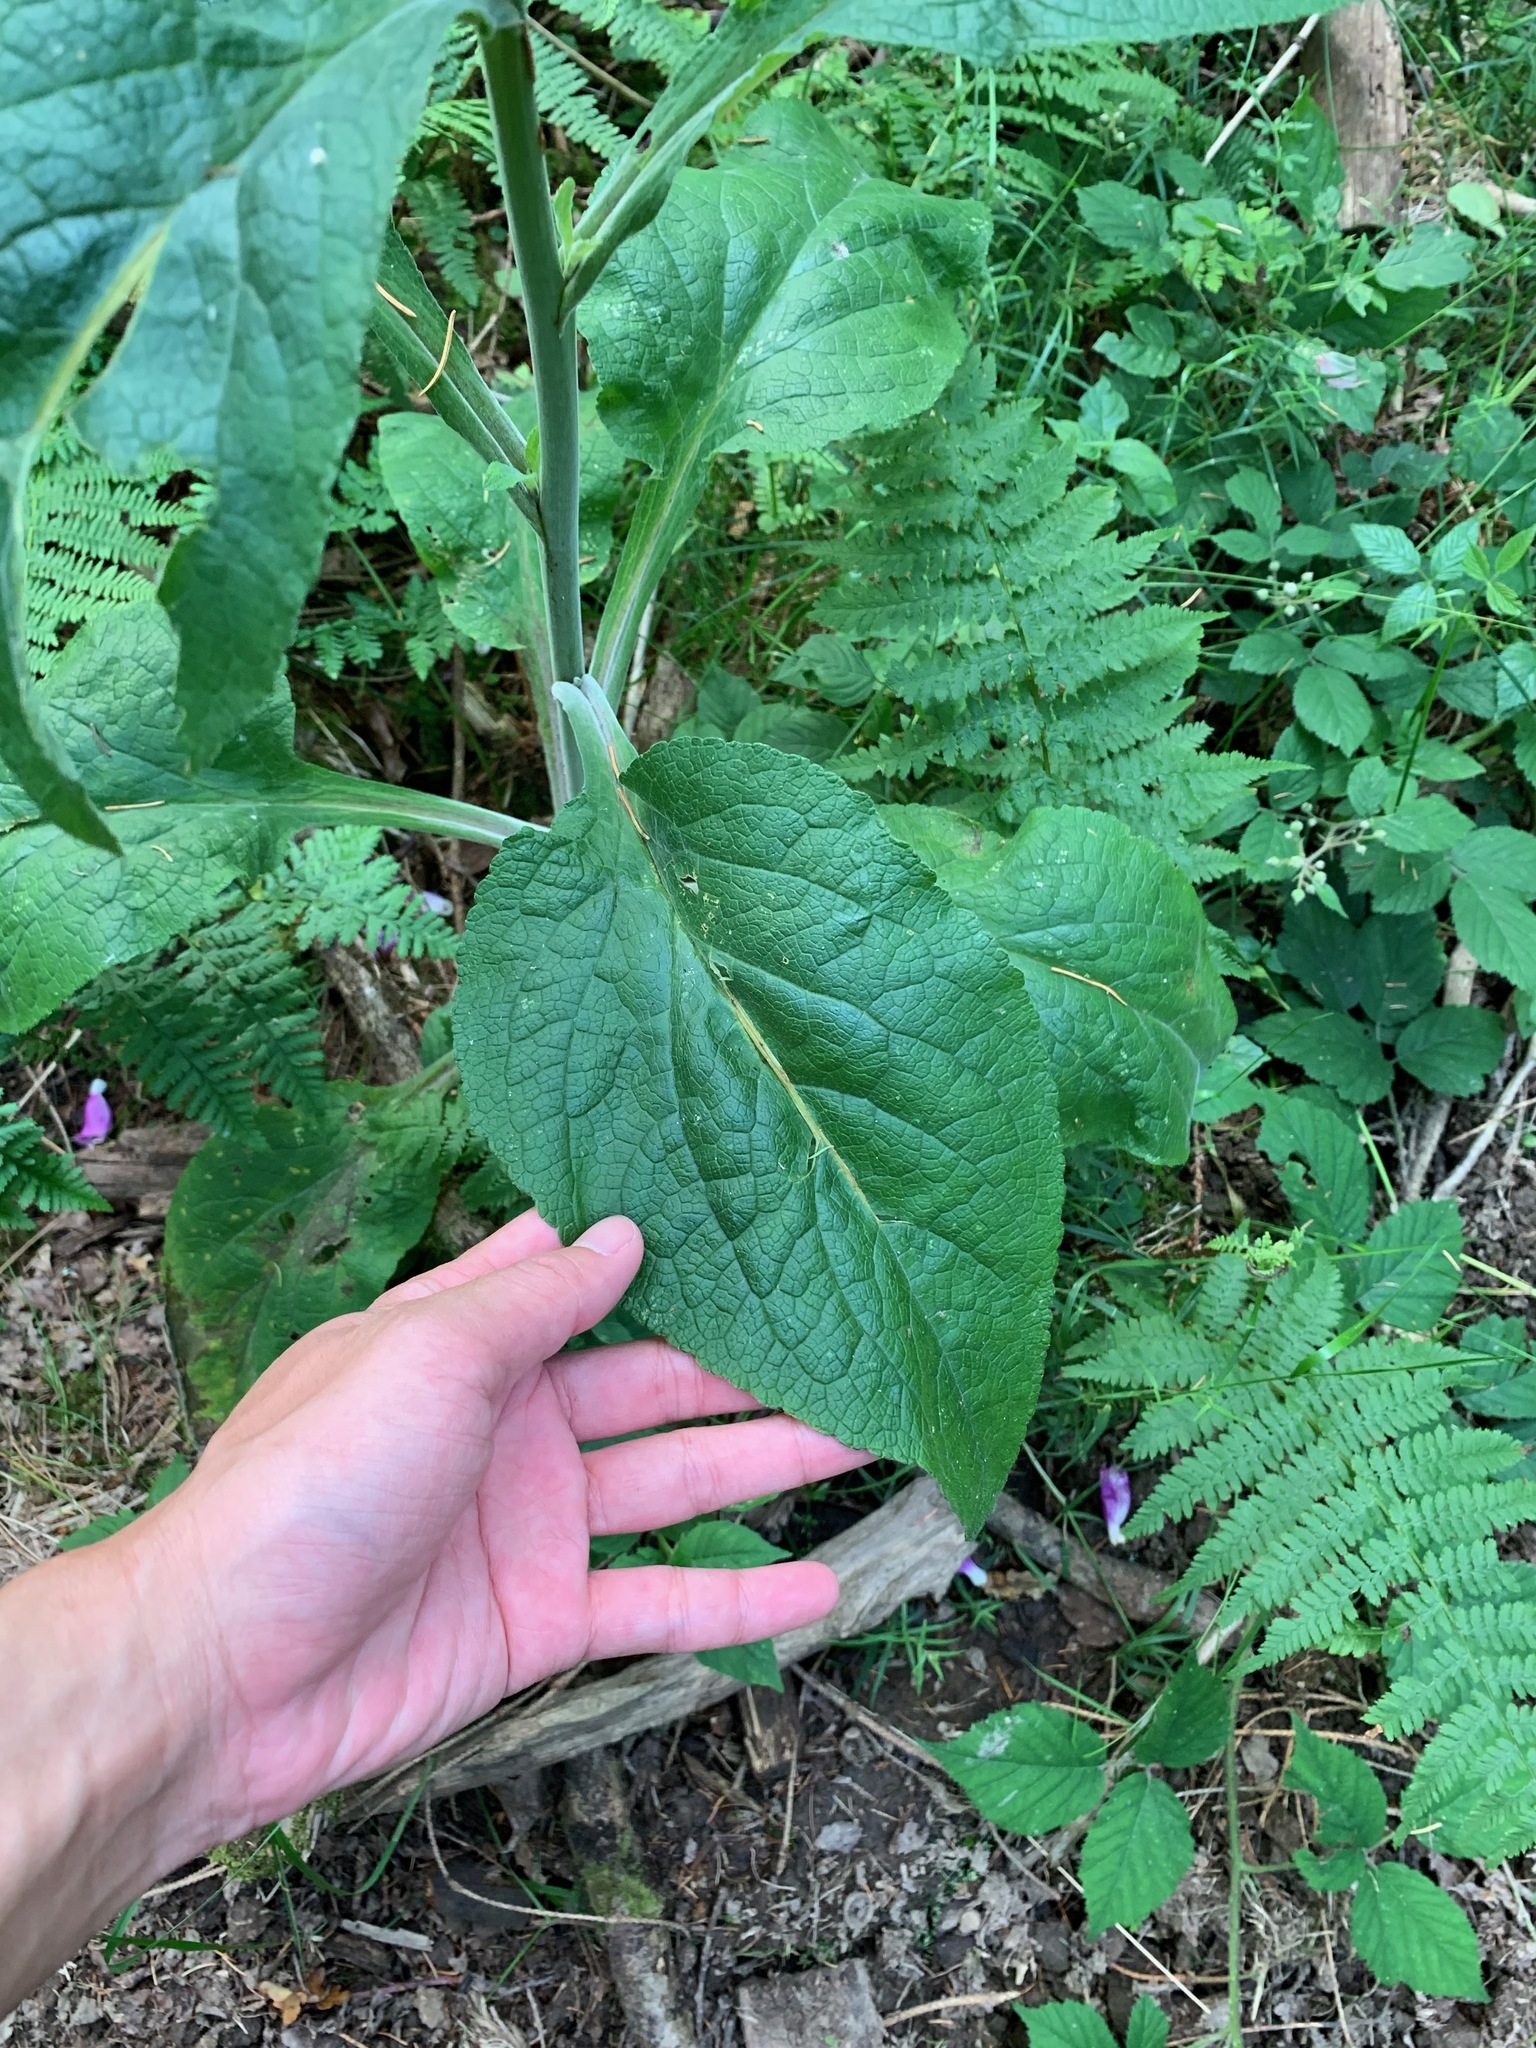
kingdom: Plantae
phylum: Tracheophyta
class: Magnoliopsida
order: Lamiales
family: Plantaginaceae
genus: Digitalis
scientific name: Digitalis purpurea
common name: Foxglove
